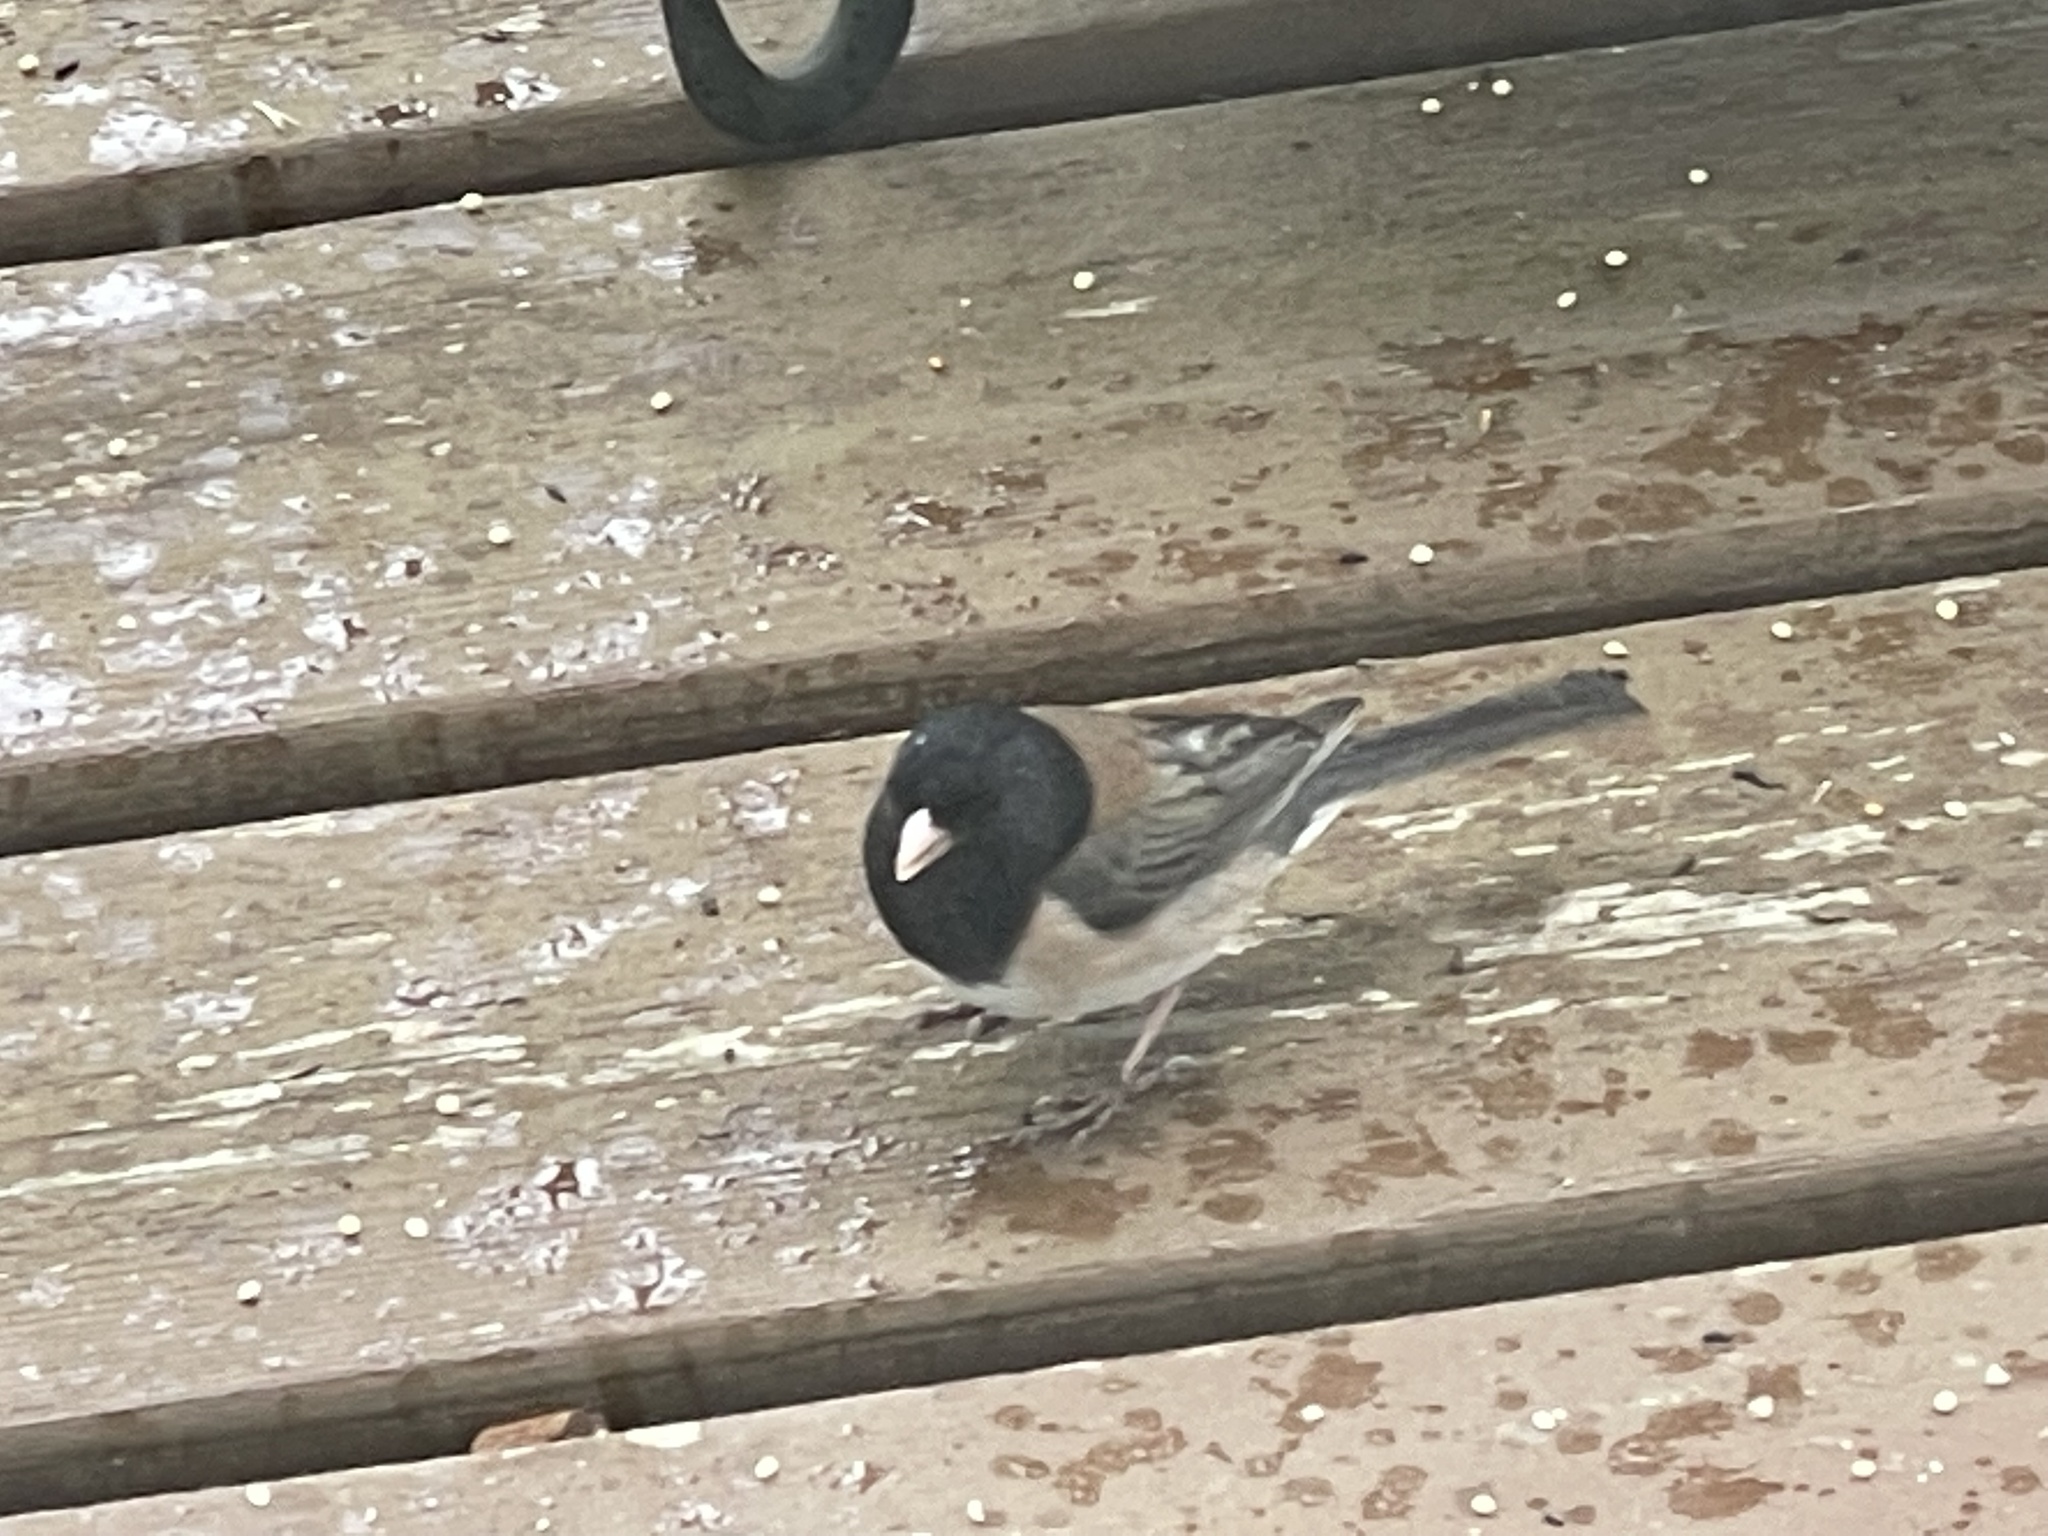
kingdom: Animalia
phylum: Chordata
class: Aves
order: Passeriformes
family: Passerellidae
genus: Junco
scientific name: Junco hyemalis
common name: Dark-eyed junco
